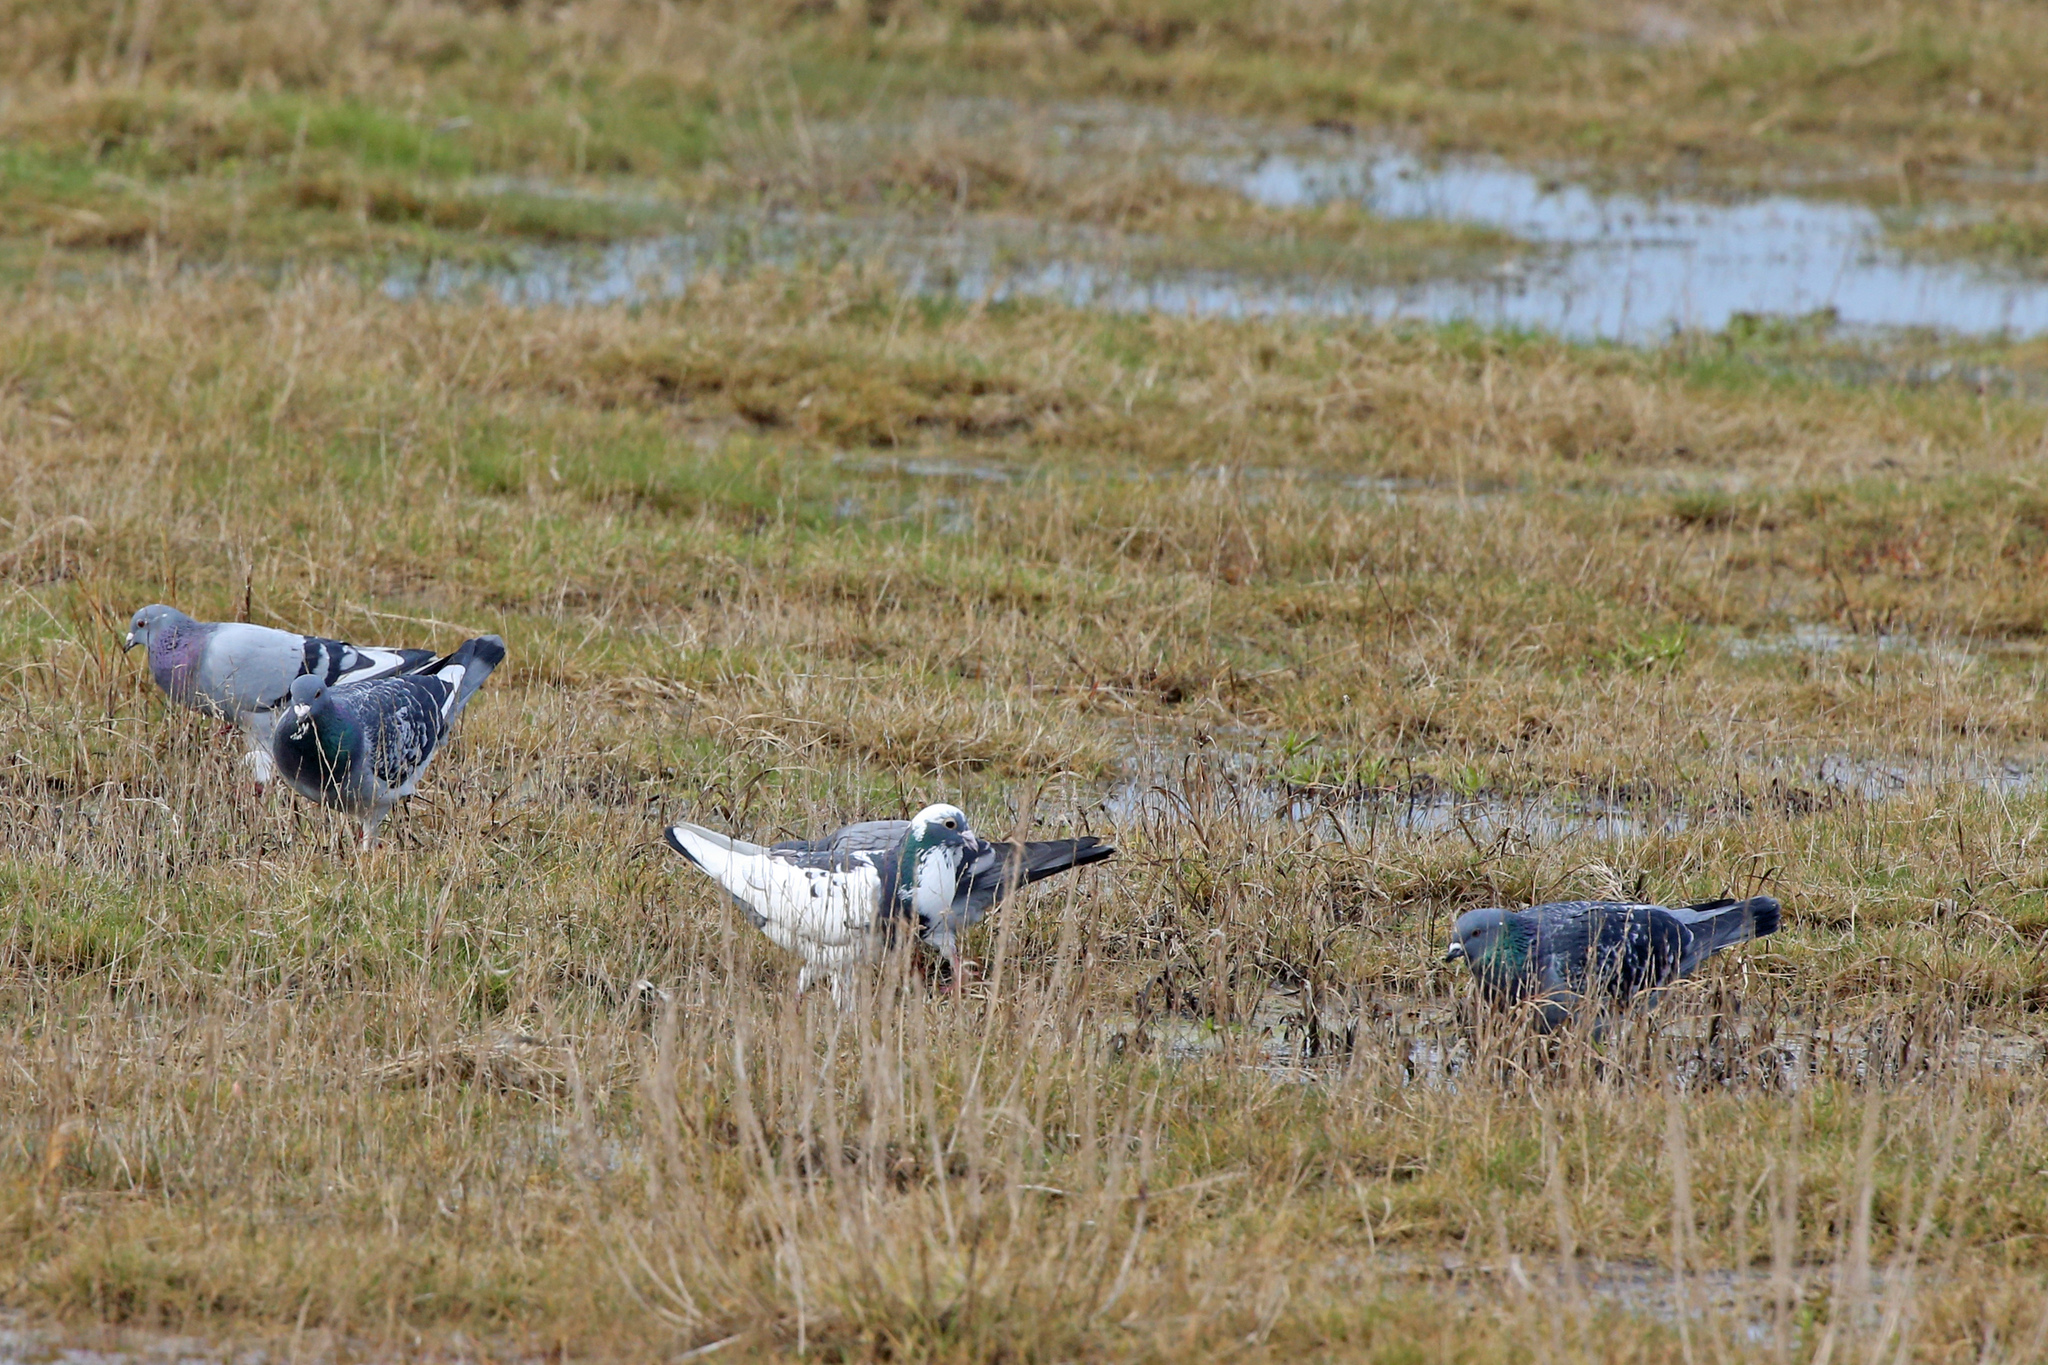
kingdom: Animalia
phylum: Chordata
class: Aves
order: Columbiformes
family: Columbidae
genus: Columba
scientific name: Columba livia
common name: Rock pigeon
